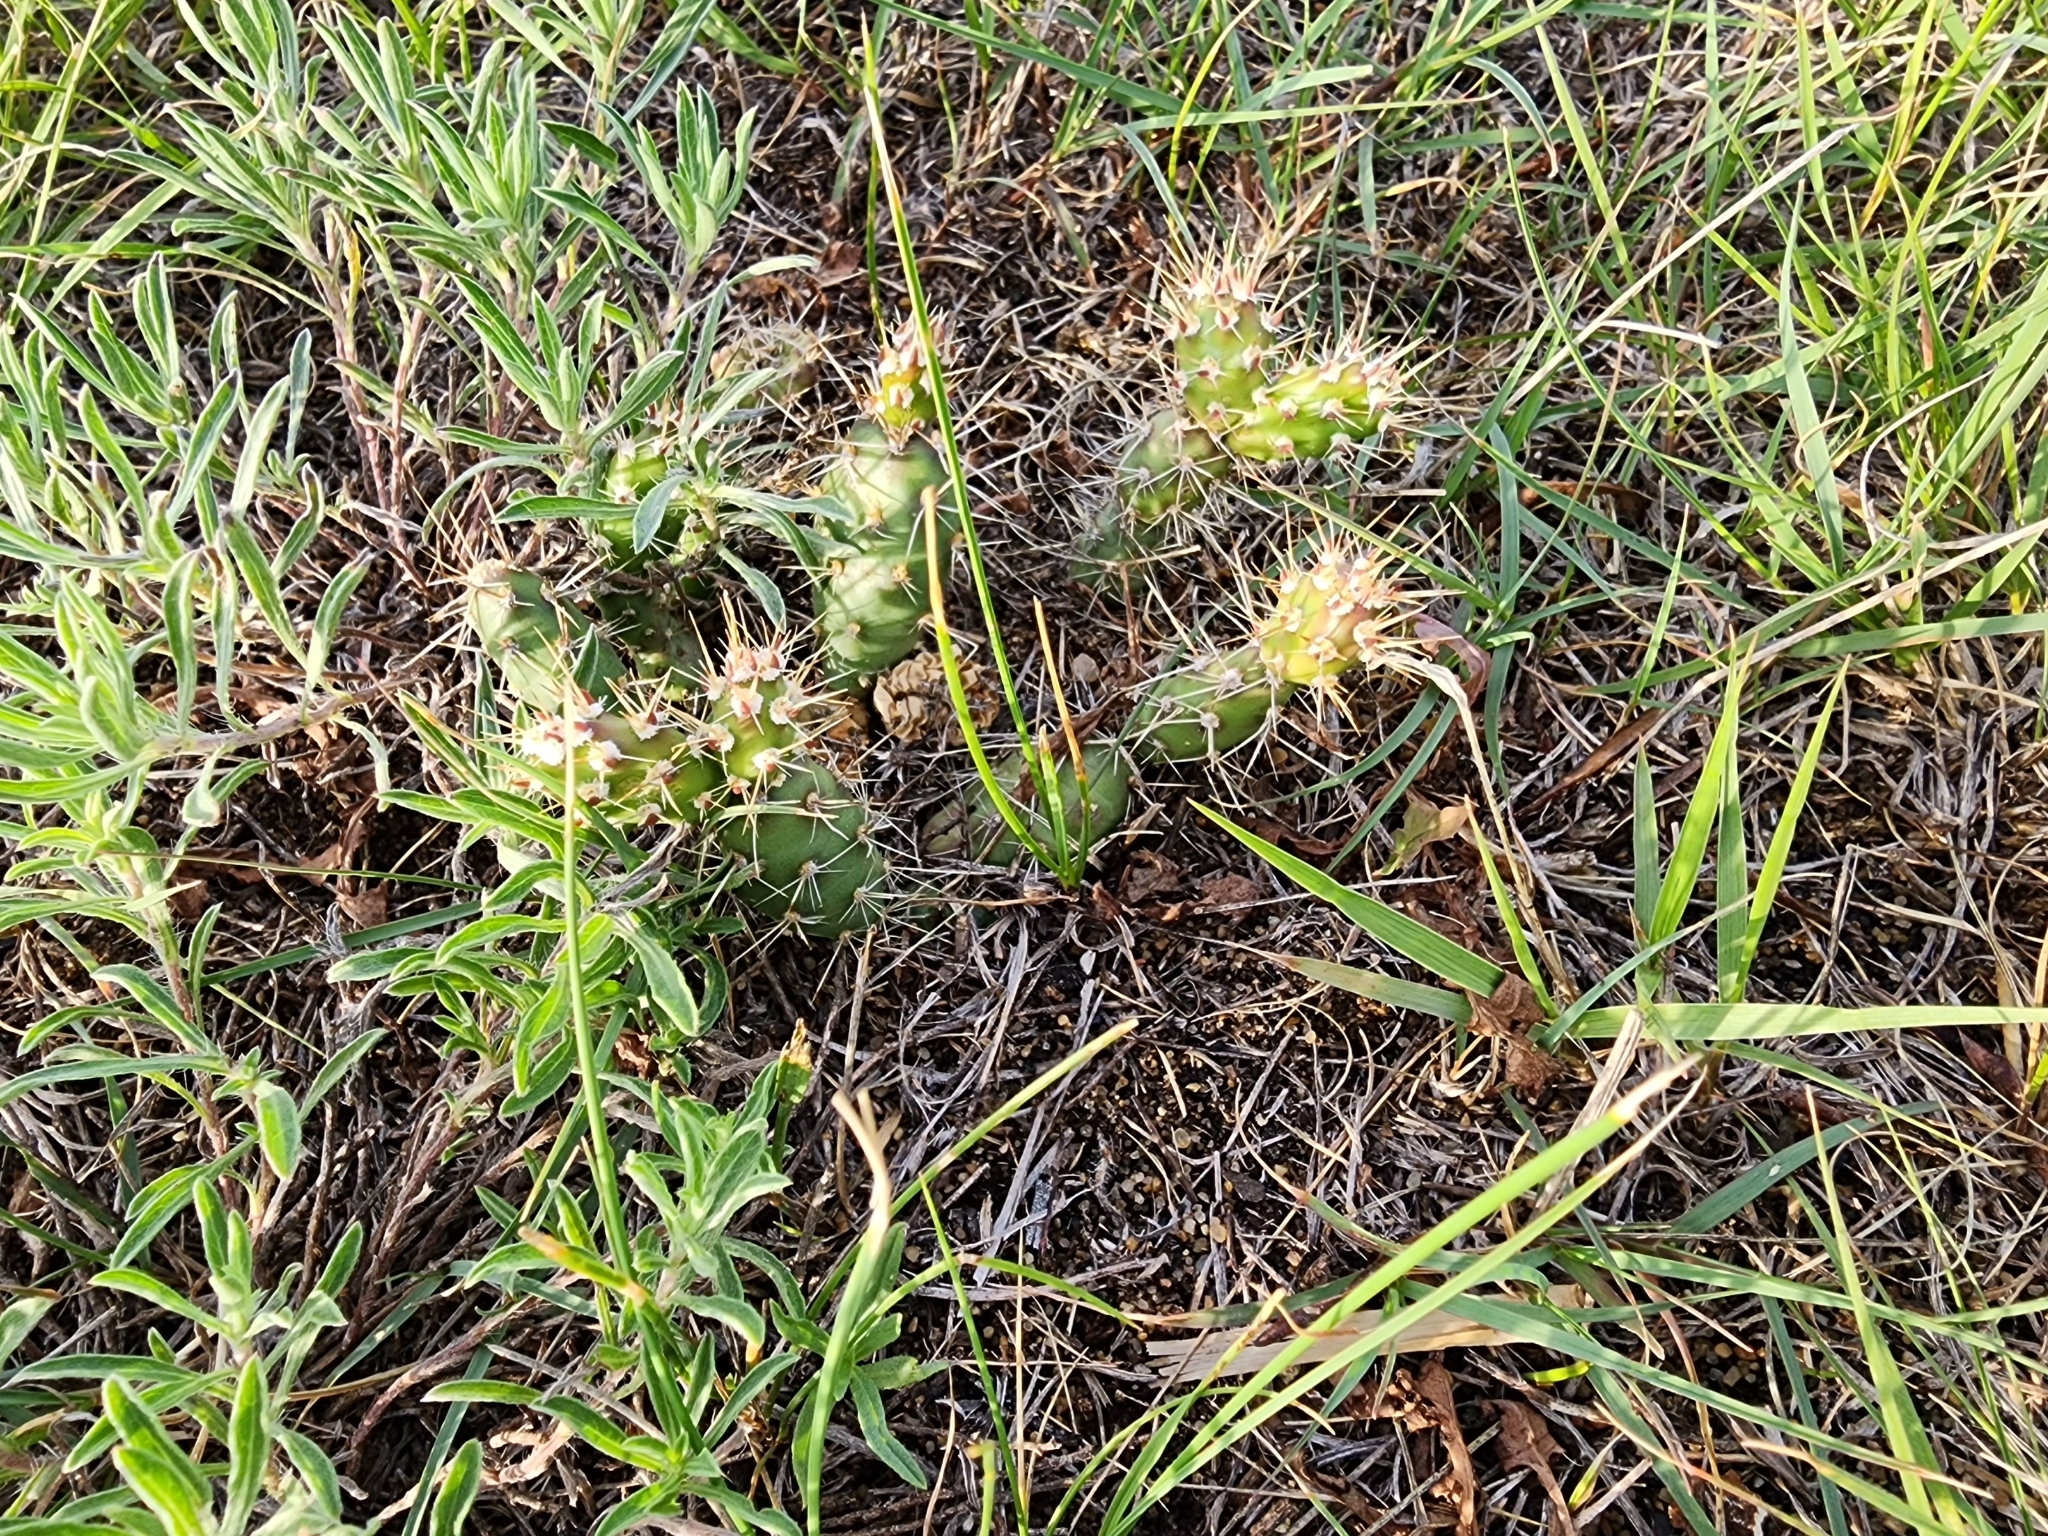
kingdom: Plantae
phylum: Tracheophyta
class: Magnoliopsida
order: Caryophyllales
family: Cactaceae
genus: Opuntia
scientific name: Opuntia fragilis
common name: Brittle cactus
